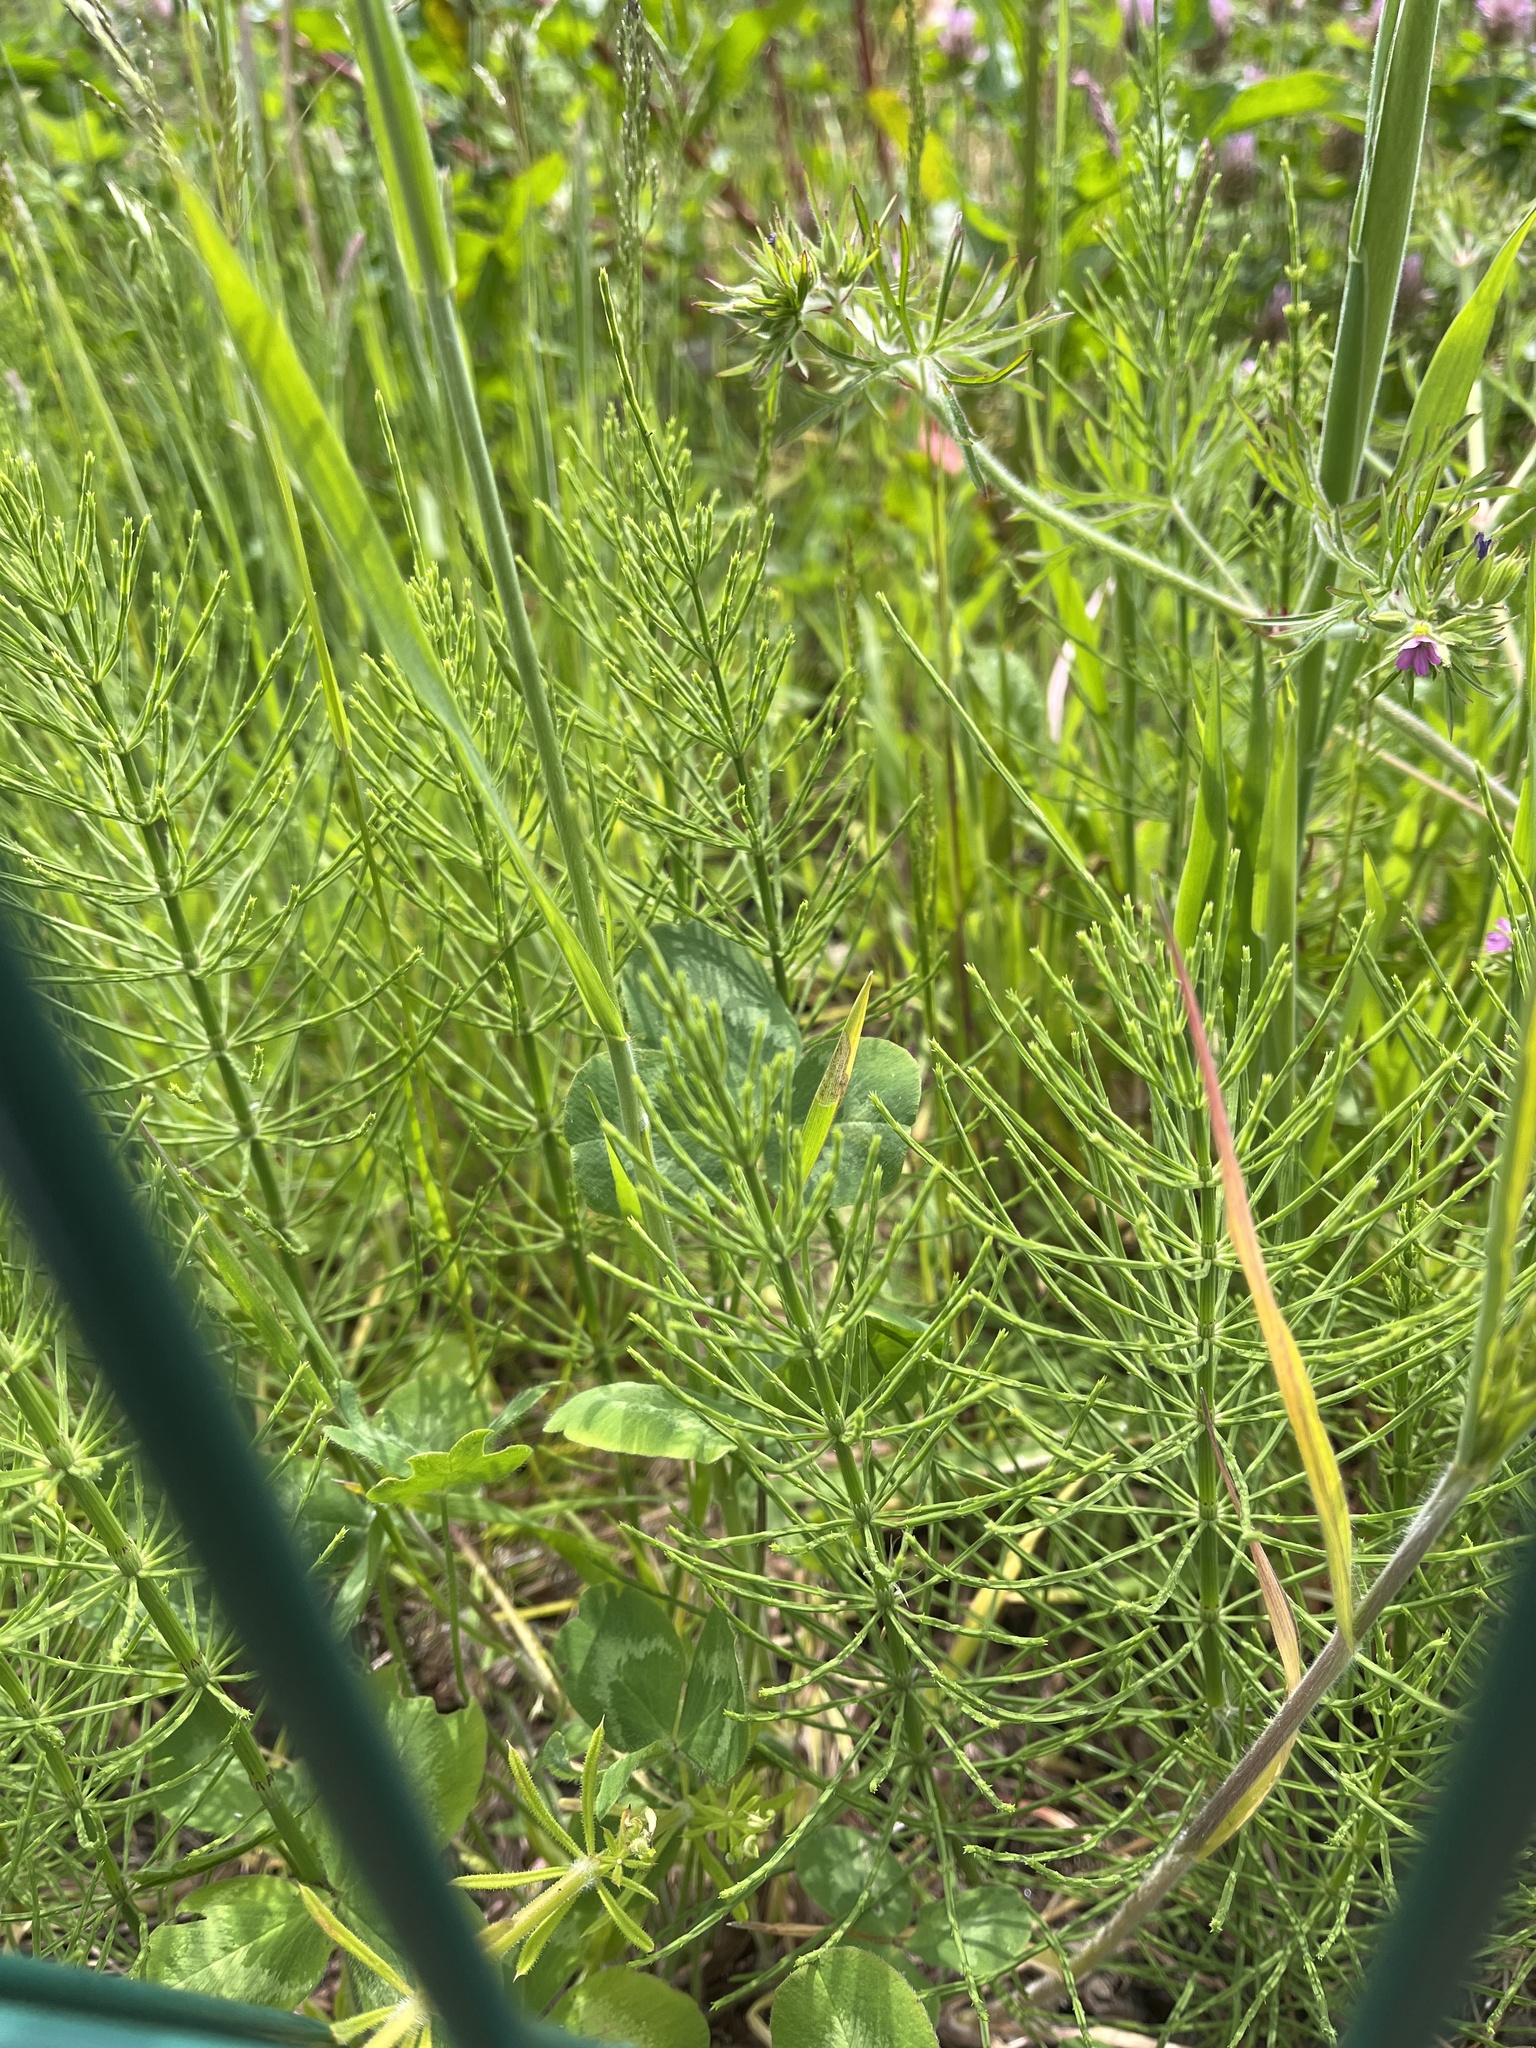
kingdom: Plantae
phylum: Tracheophyta
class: Polypodiopsida
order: Equisetales
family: Equisetaceae
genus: Equisetum
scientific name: Equisetum arvense
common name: Field horsetail
